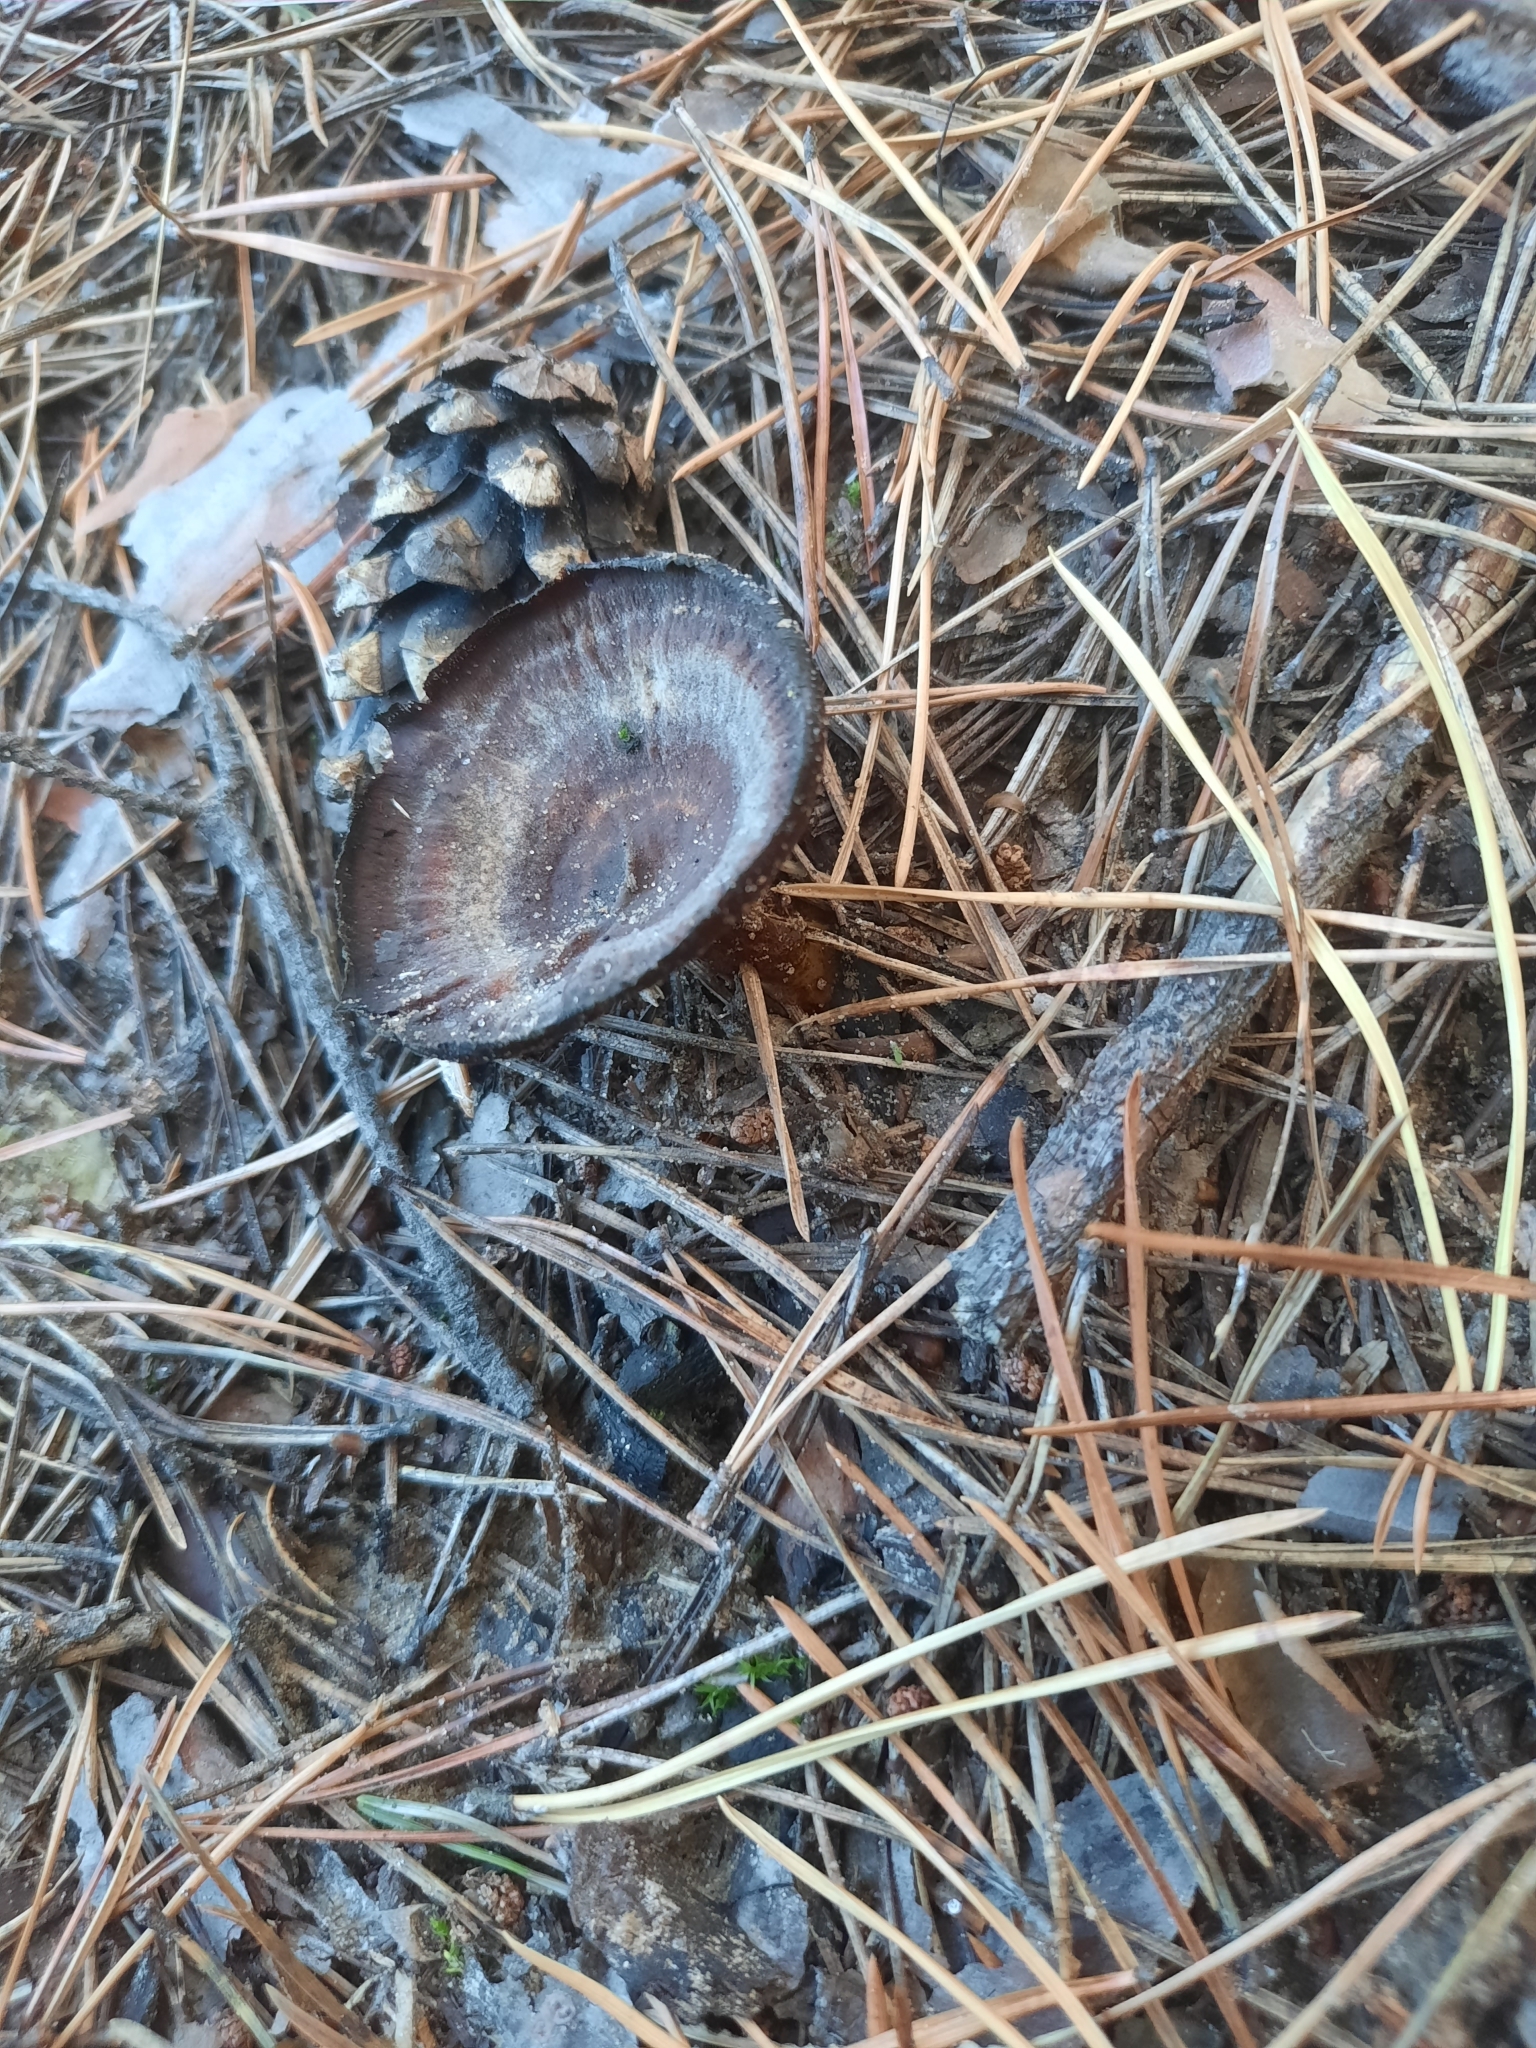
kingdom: Fungi
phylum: Basidiomycota
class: Agaricomycetes
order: Hymenochaetales
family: Hymenochaetaceae
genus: Coltricia
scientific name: Coltricia perennis
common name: Tiger's eye
